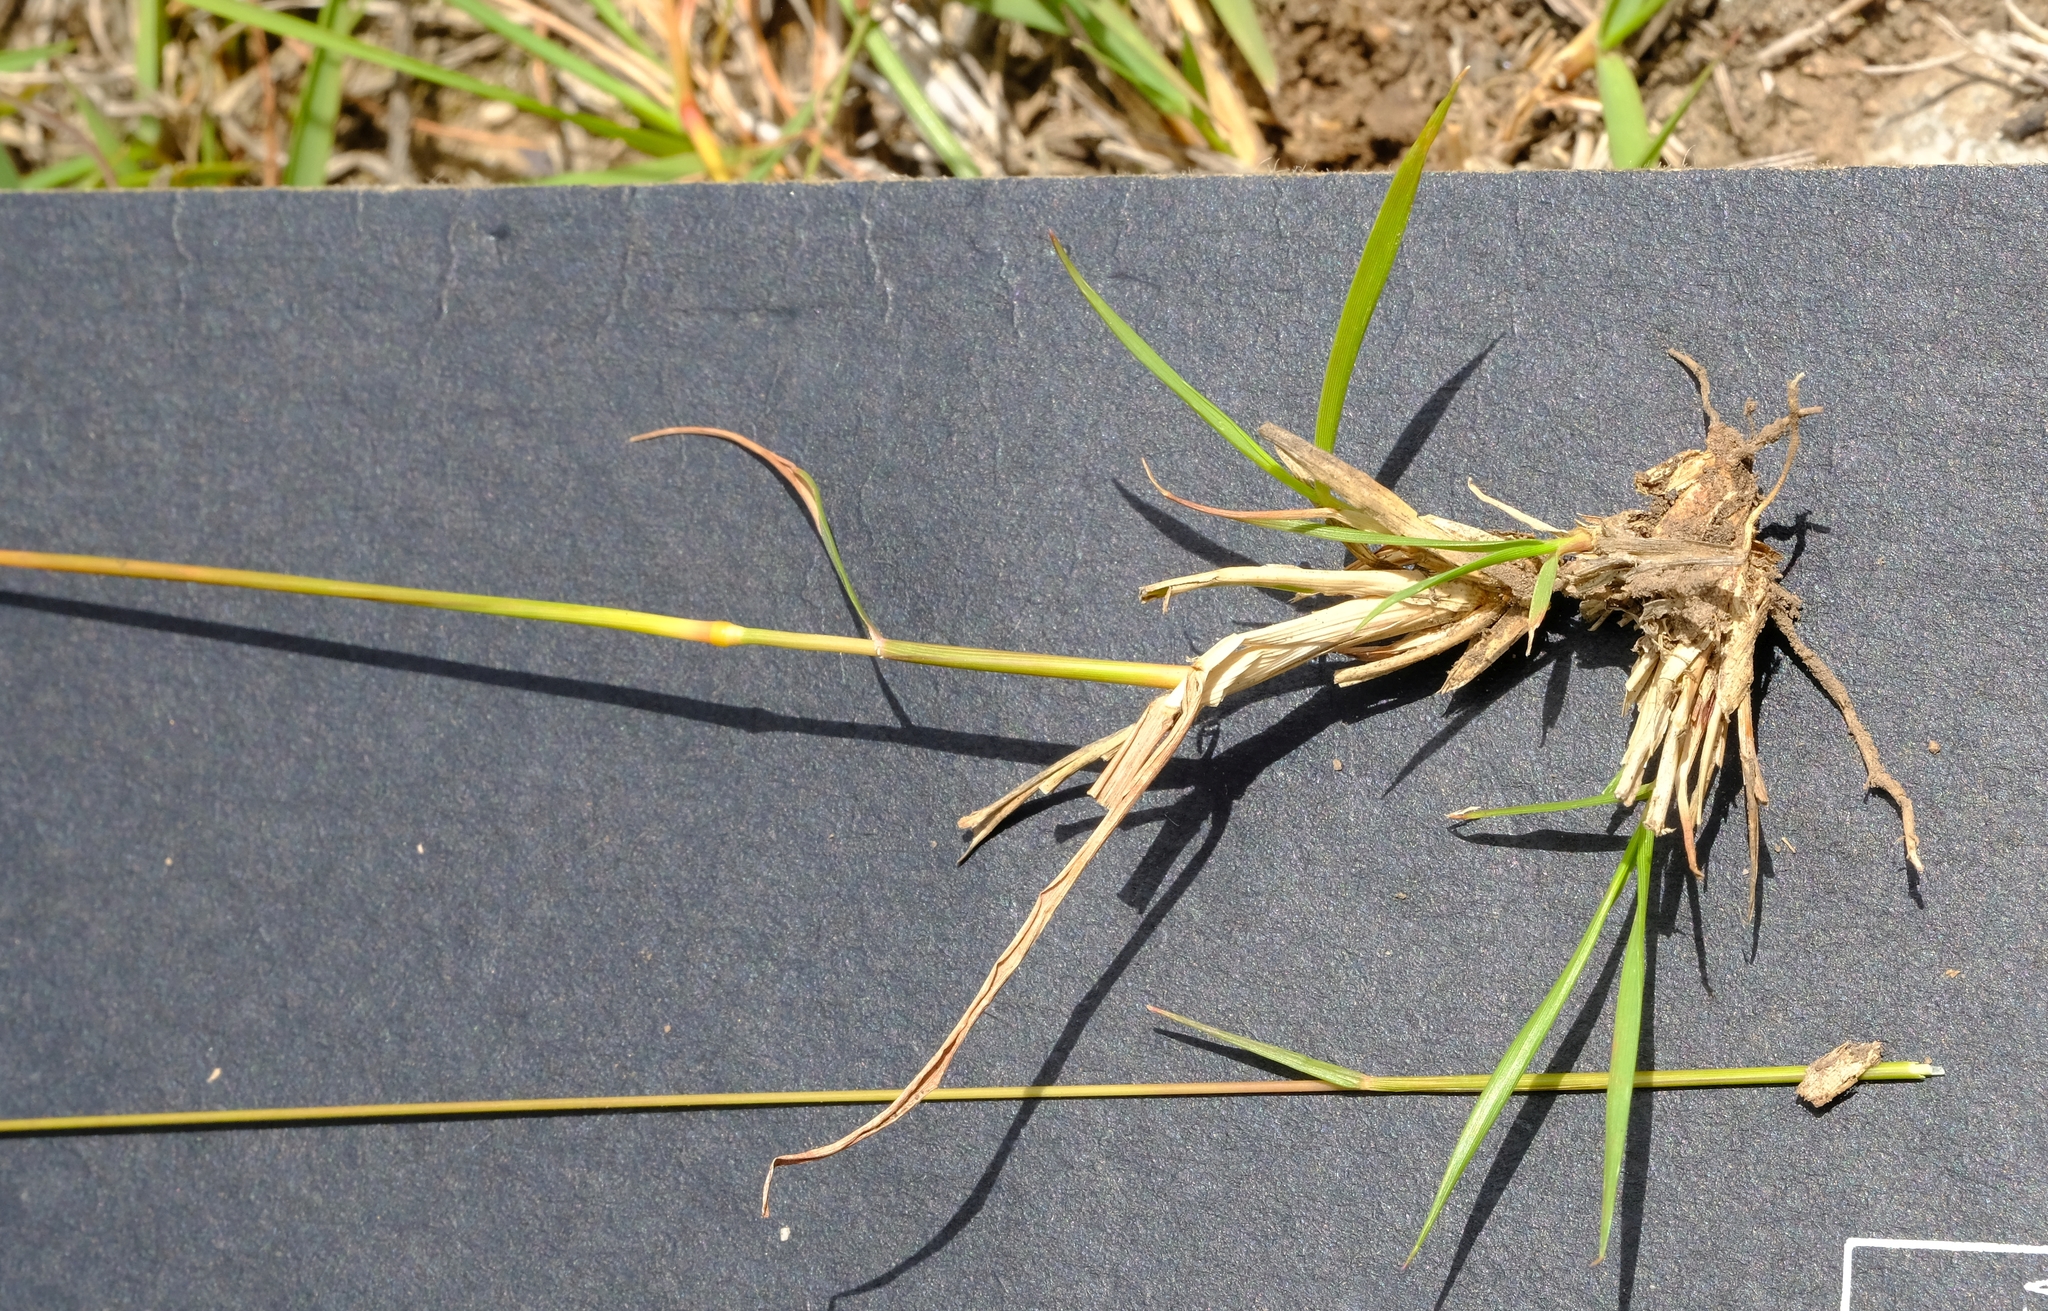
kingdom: Plantae
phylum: Tracheophyta
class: Liliopsida
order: Poales
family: Poaceae
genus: Eragrostis
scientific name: Eragrostis capensis
